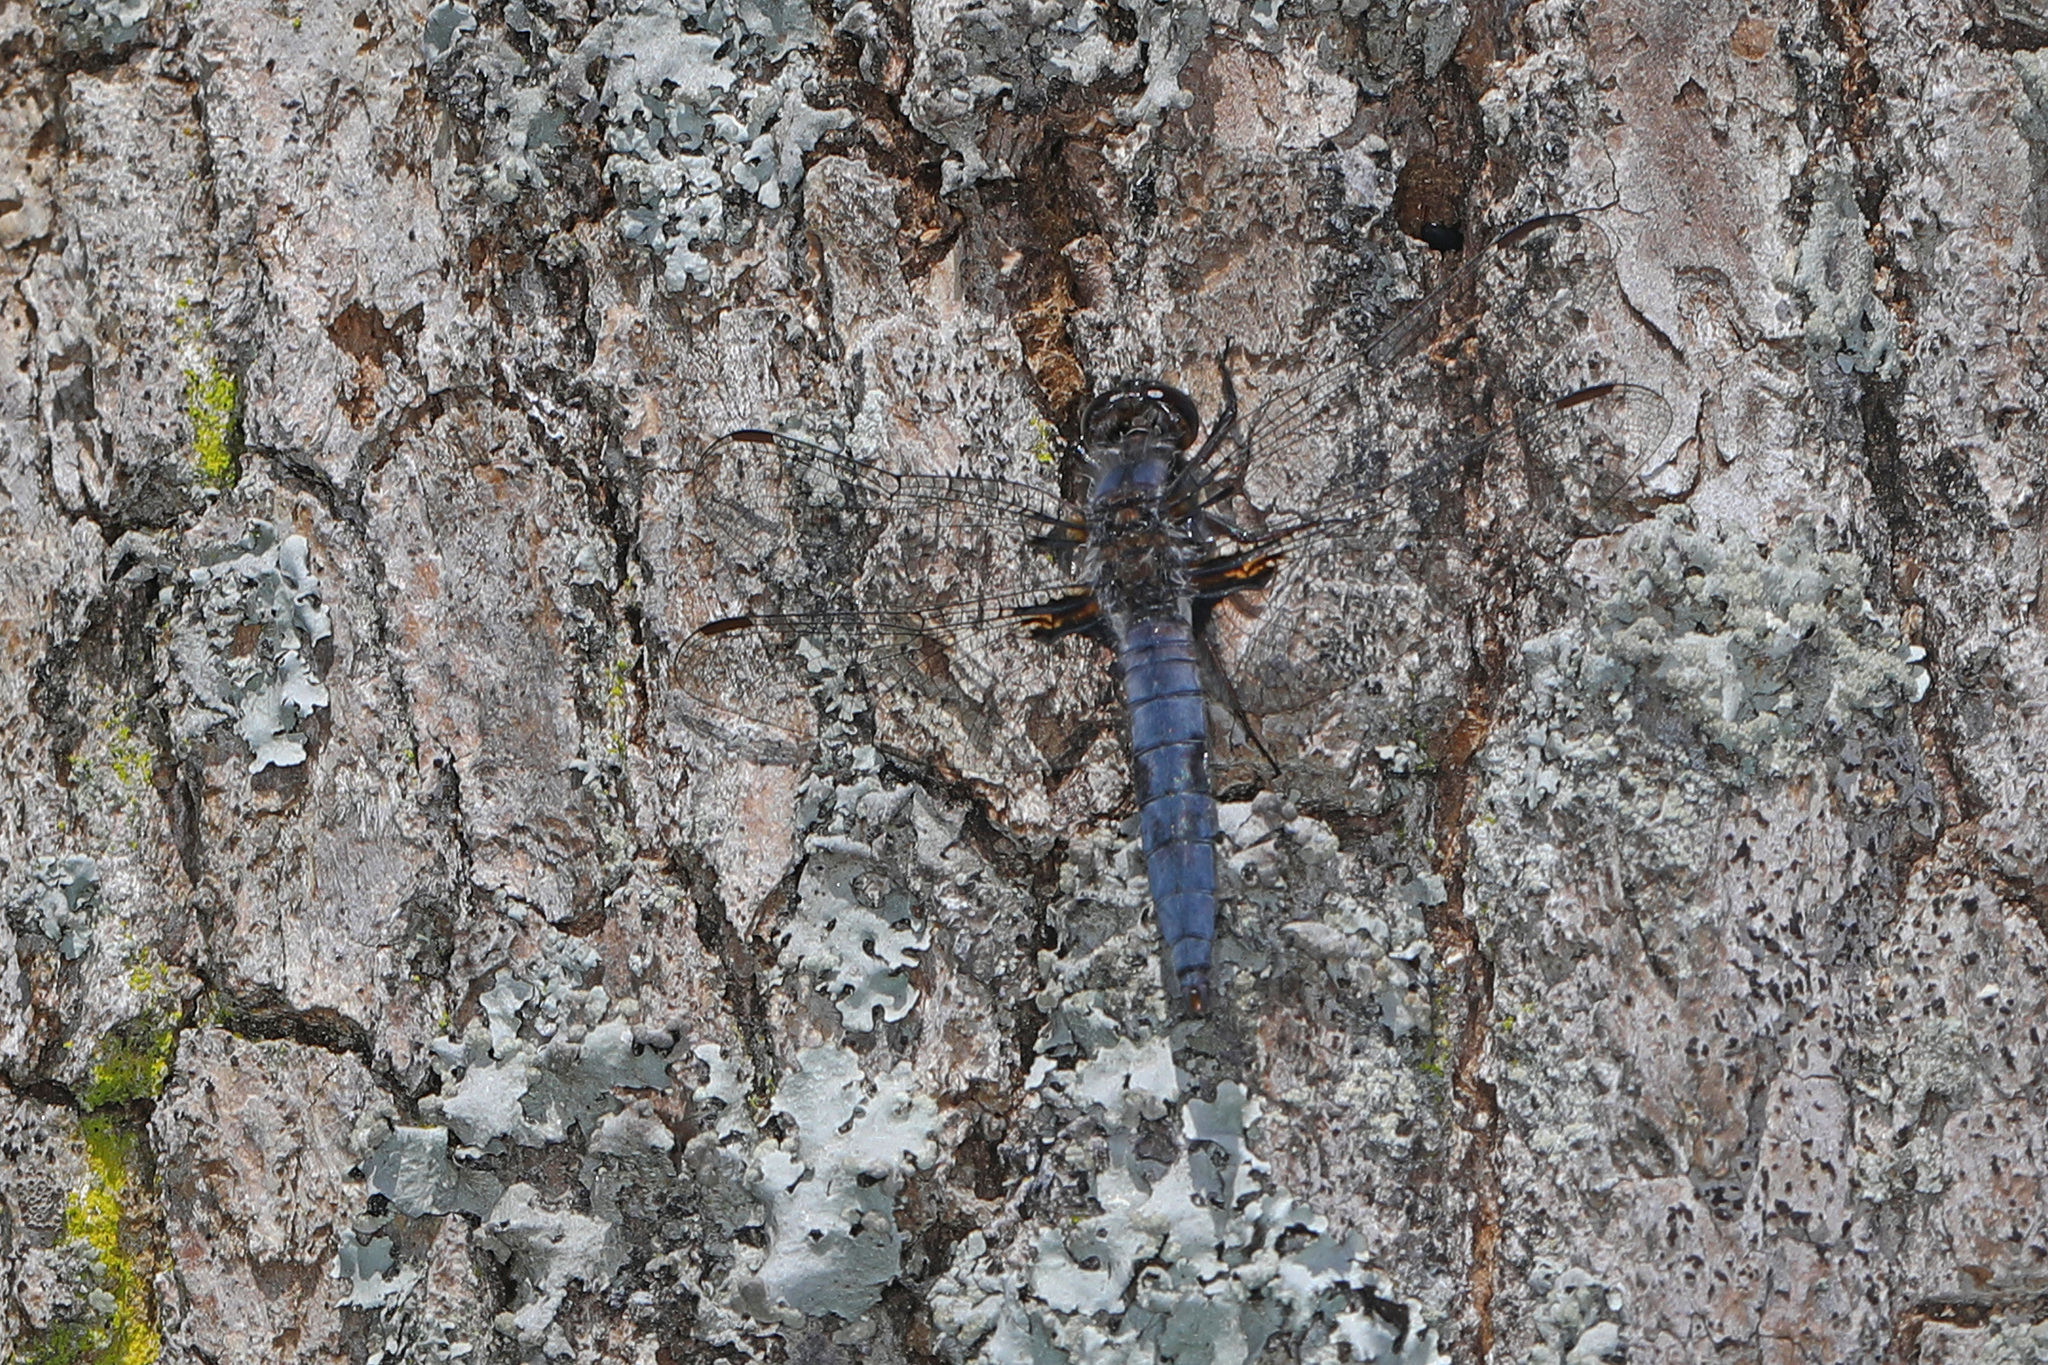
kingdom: Animalia
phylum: Arthropoda
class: Insecta
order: Odonata
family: Libellulidae
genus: Ladona
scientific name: Ladona deplanata
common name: Blue corporal
